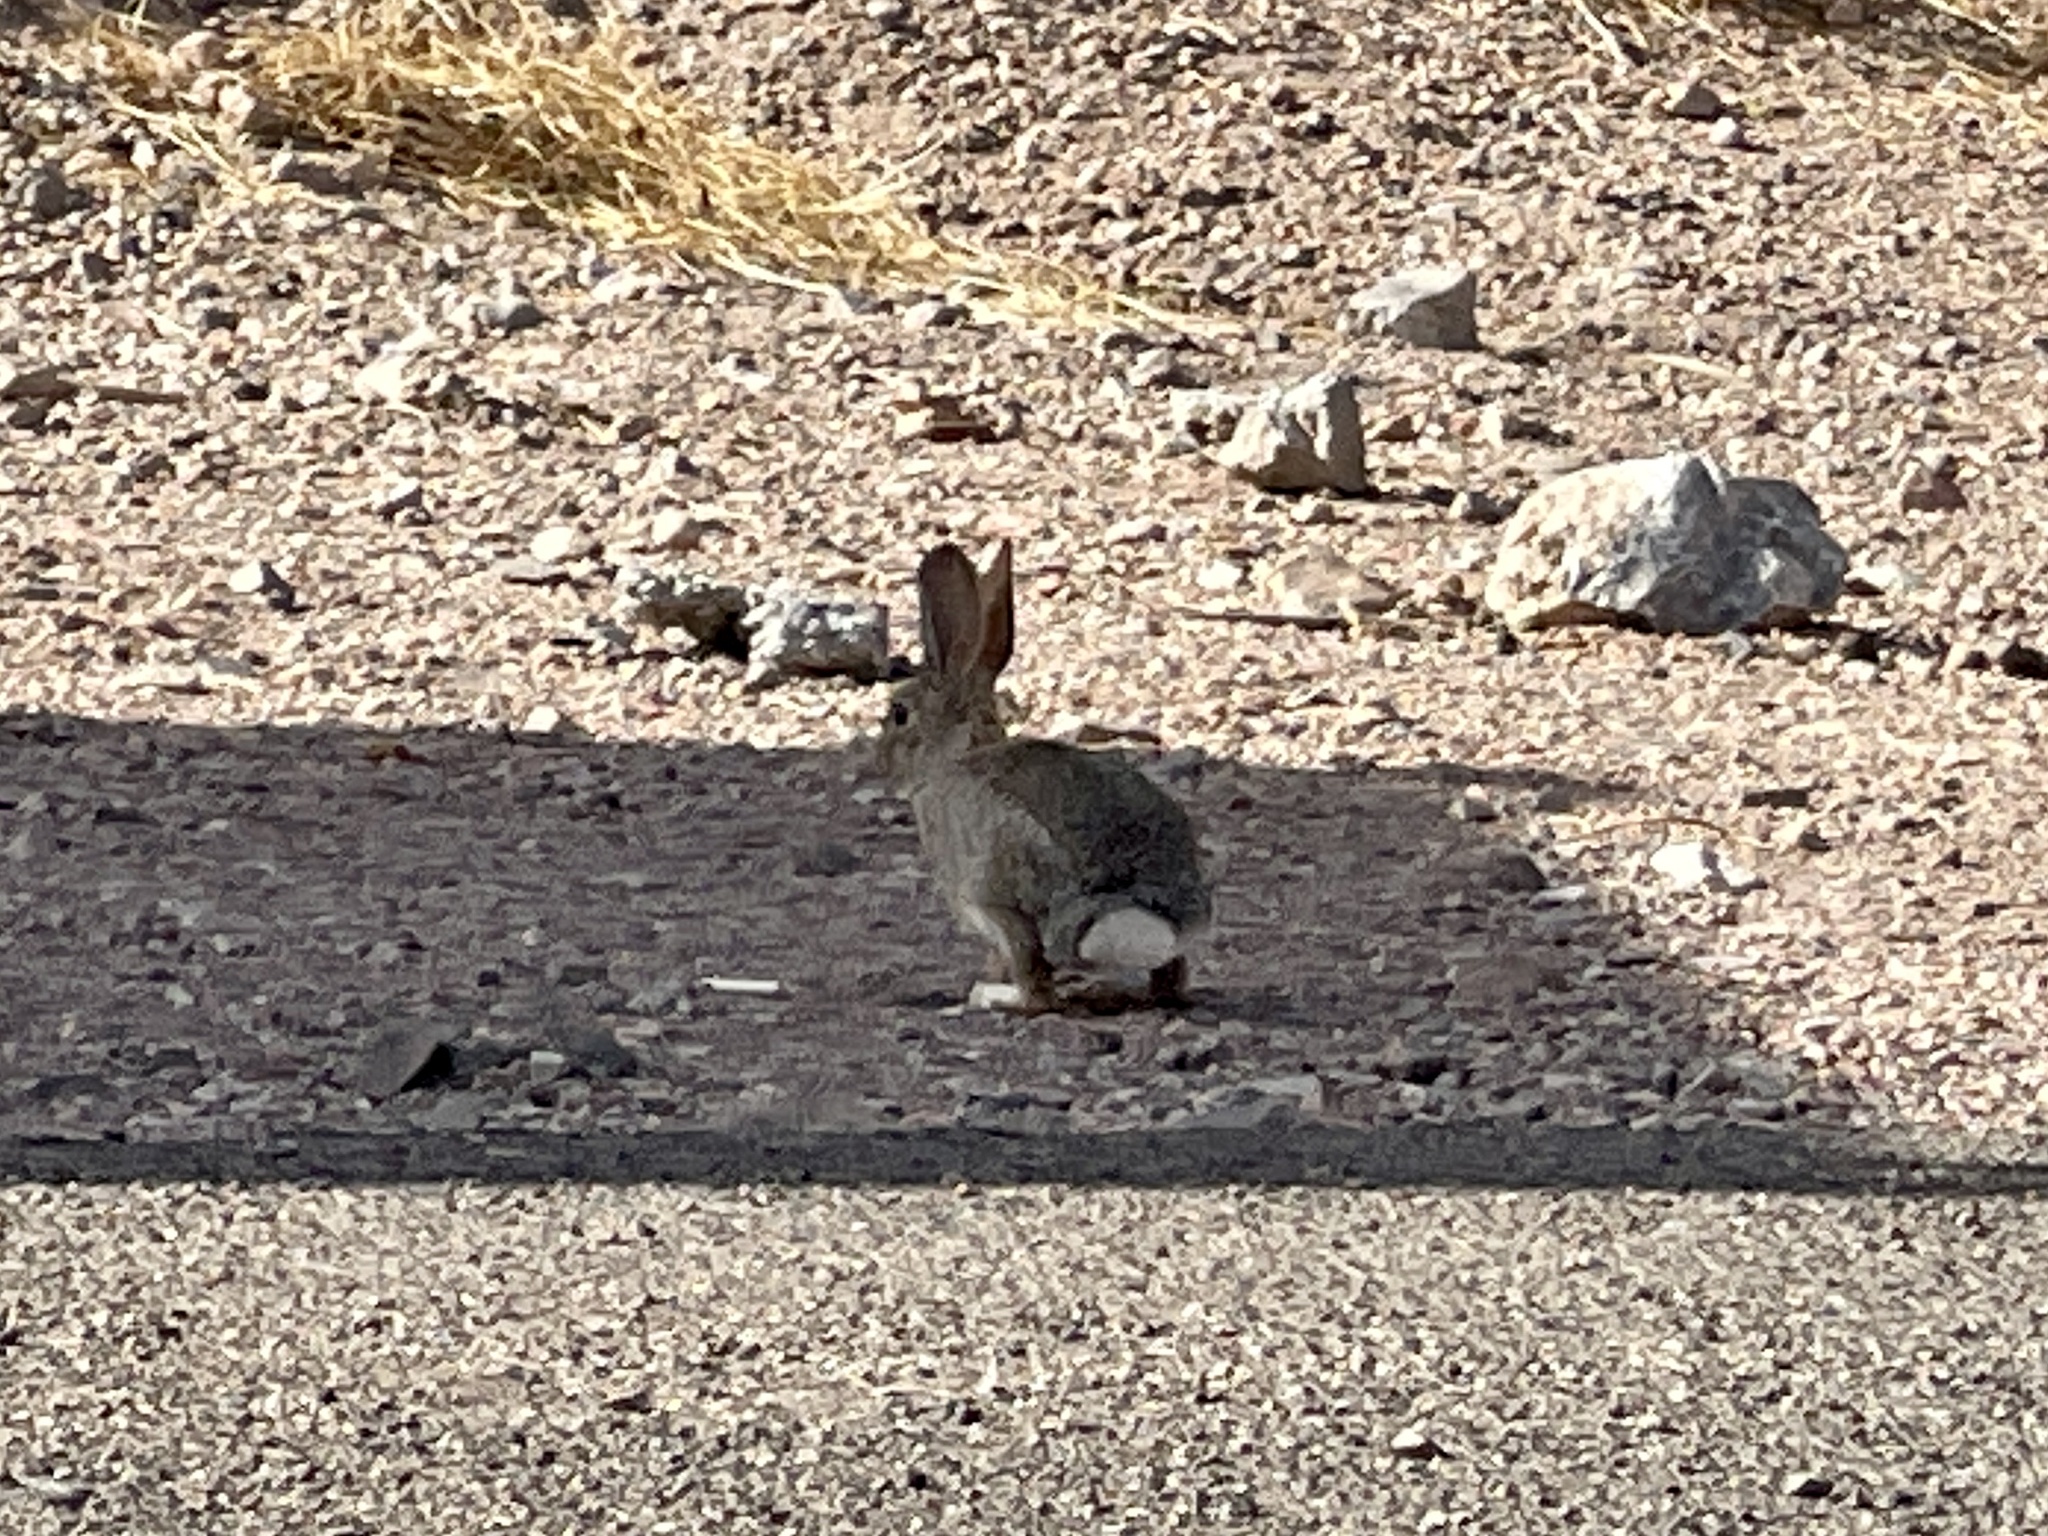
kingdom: Animalia
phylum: Chordata
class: Mammalia
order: Lagomorpha
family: Leporidae
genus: Sylvilagus
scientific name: Sylvilagus audubonii
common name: Desert cottontail
